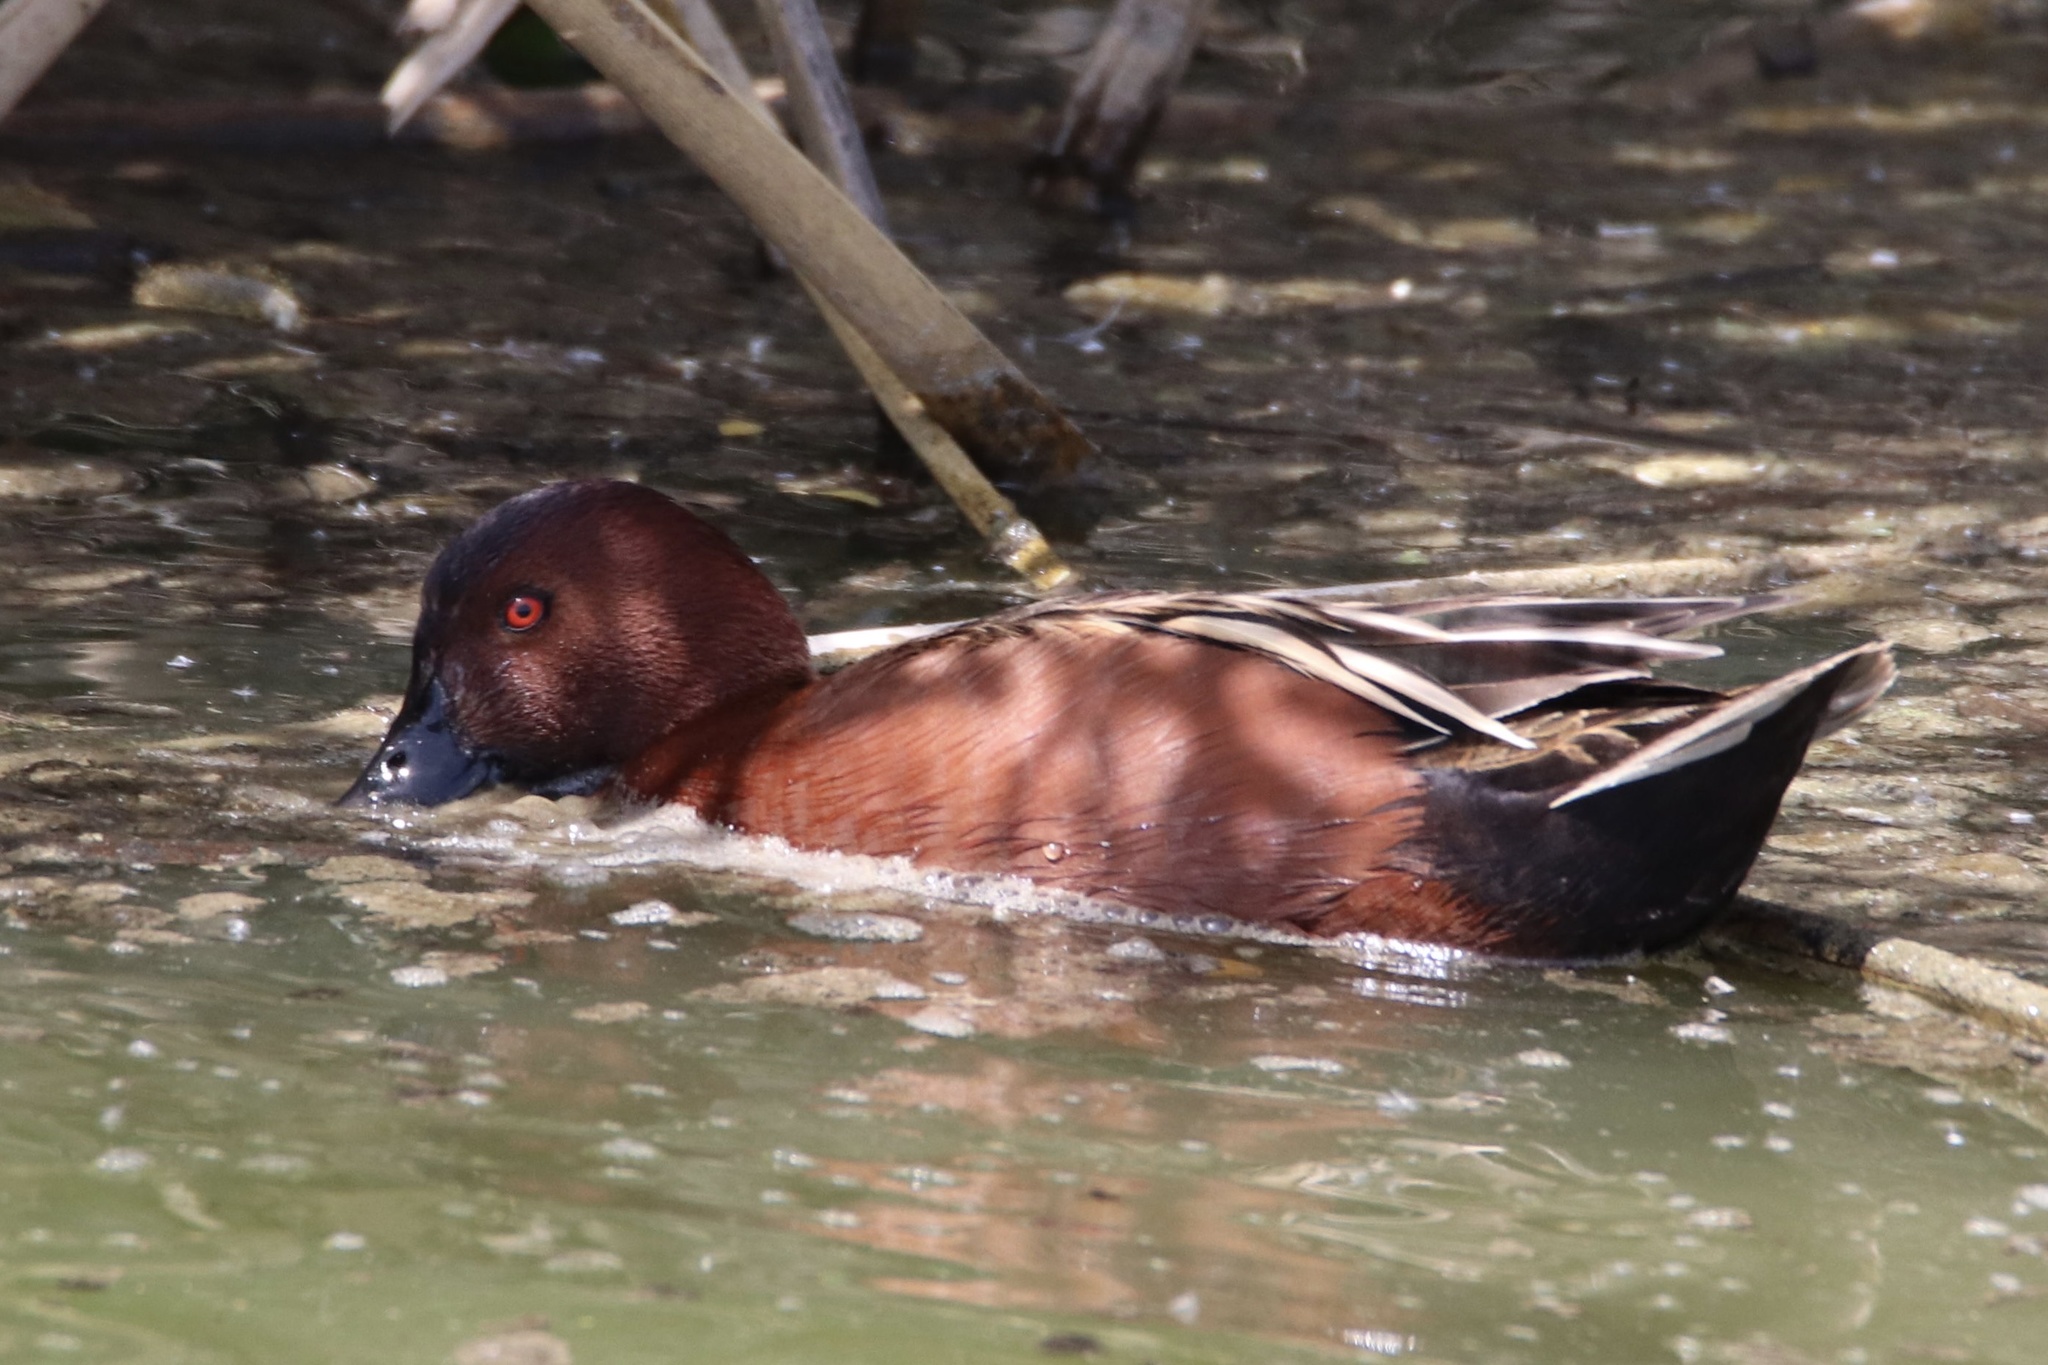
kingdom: Animalia
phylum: Chordata
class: Aves
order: Anseriformes
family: Anatidae
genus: Spatula
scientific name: Spatula cyanoptera
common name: Cinnamon teal
